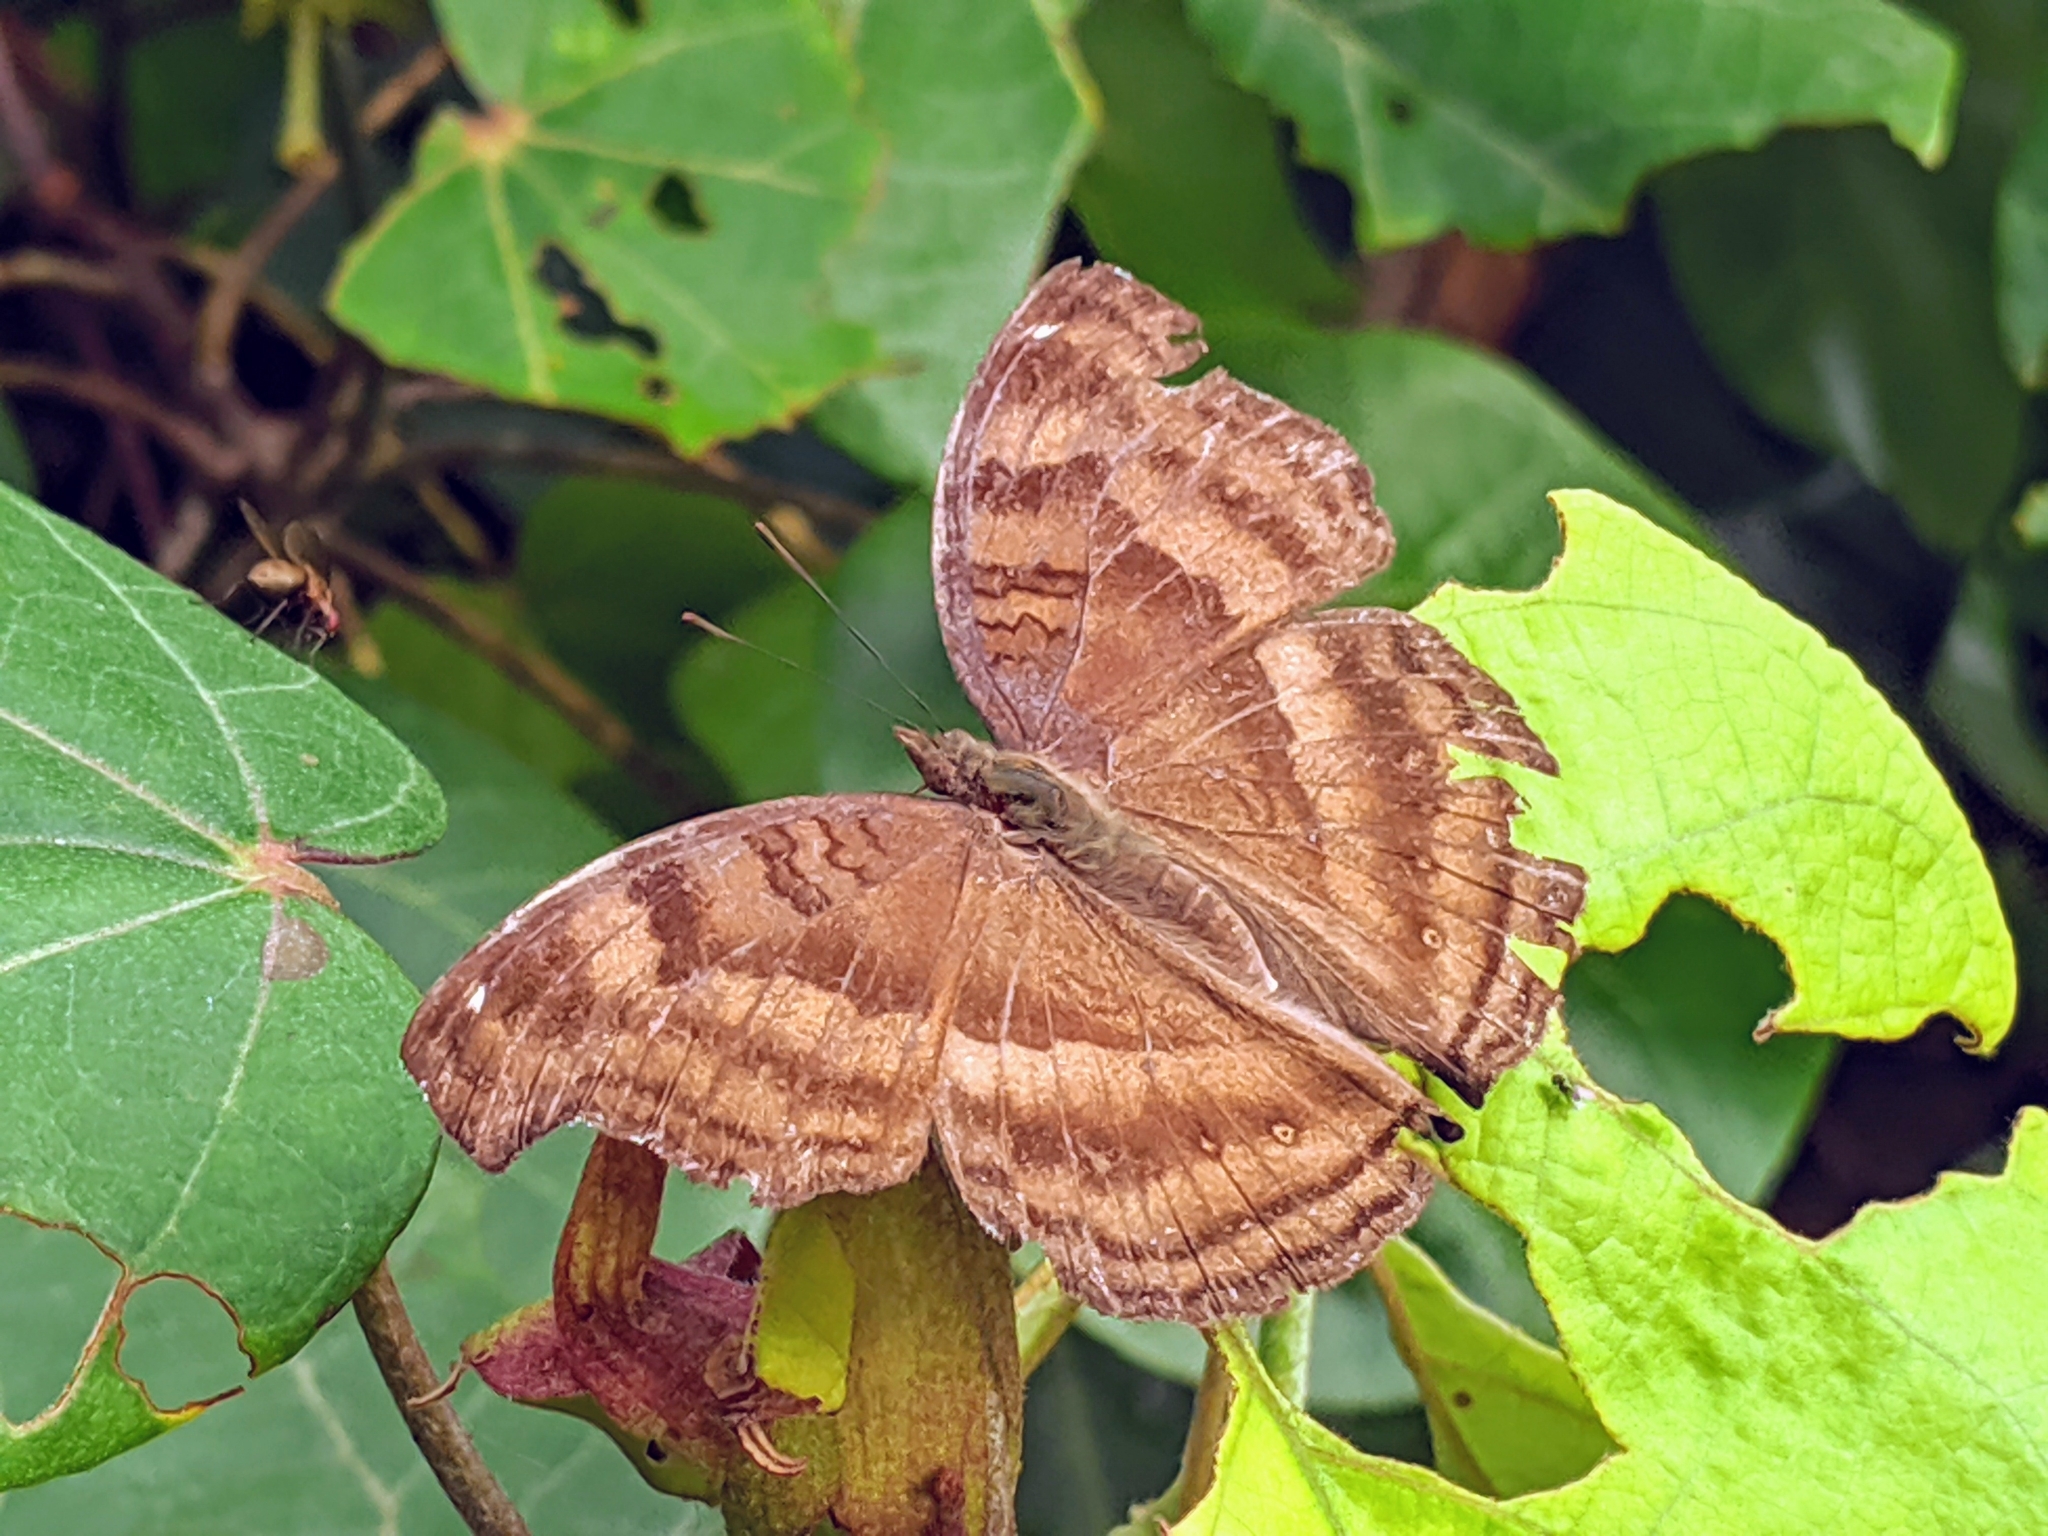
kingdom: Animalia
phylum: Arthropoda
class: Insecta
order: Lepidoptera
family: Nymphalidae
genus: Junonia
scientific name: Junonia iphita
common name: Chocolate pansy
